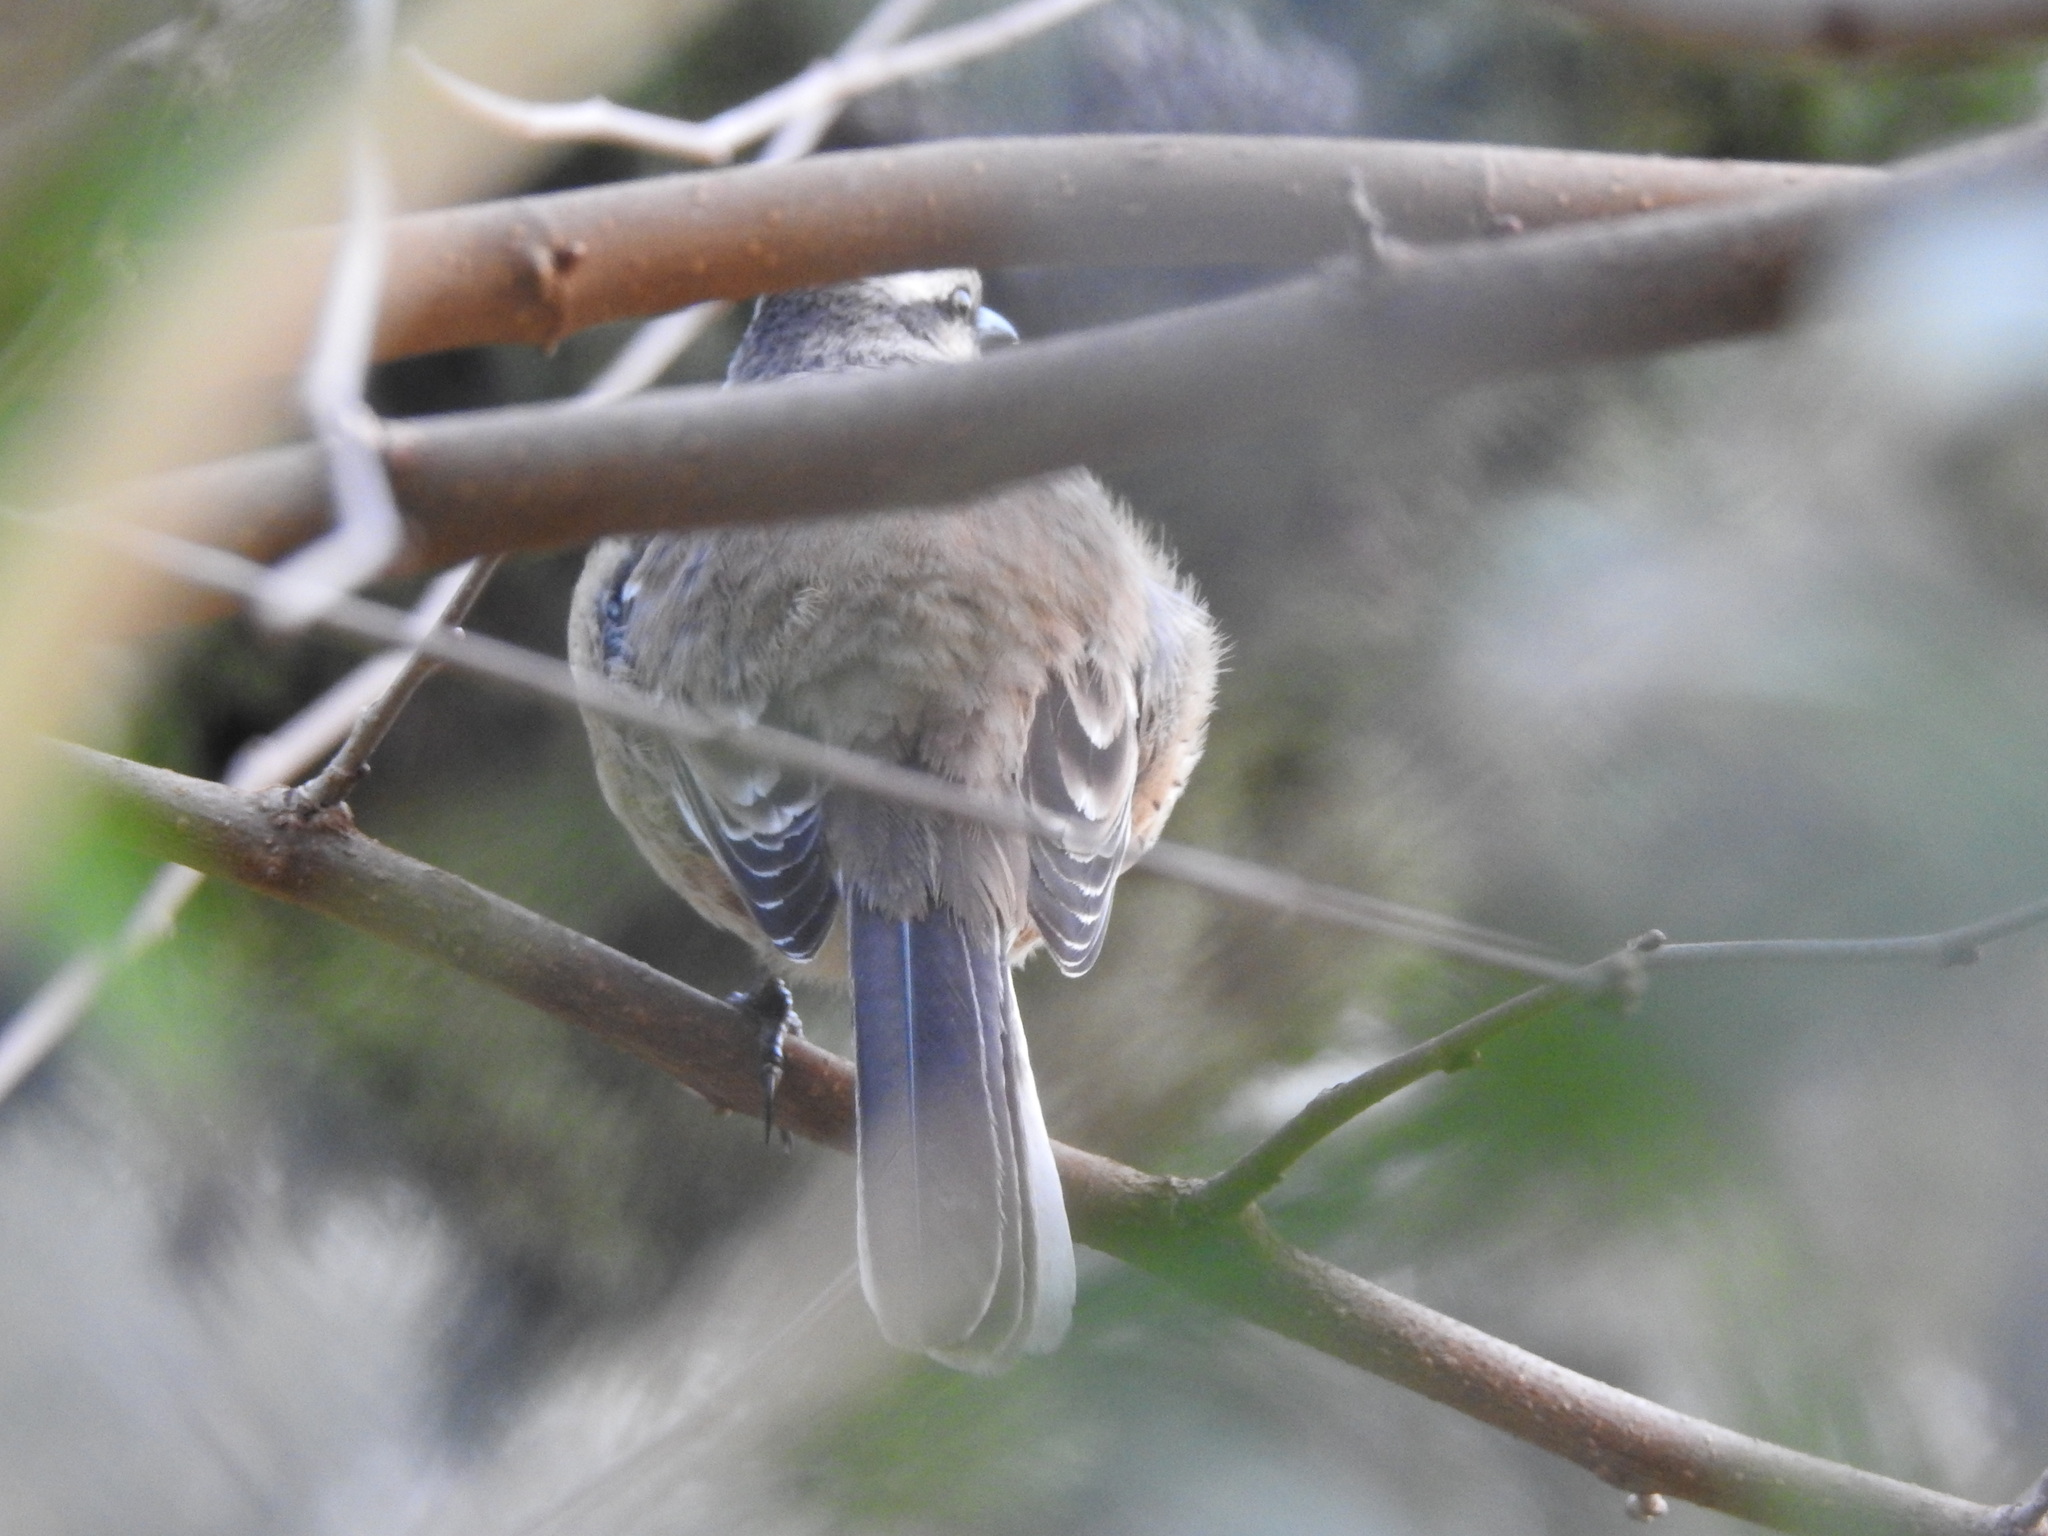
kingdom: Animalia
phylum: Chordata
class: Aves
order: Passeriformes
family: Mimidae
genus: Mimus
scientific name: Mimus saturninus
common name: Chalk-browed mockingbird
